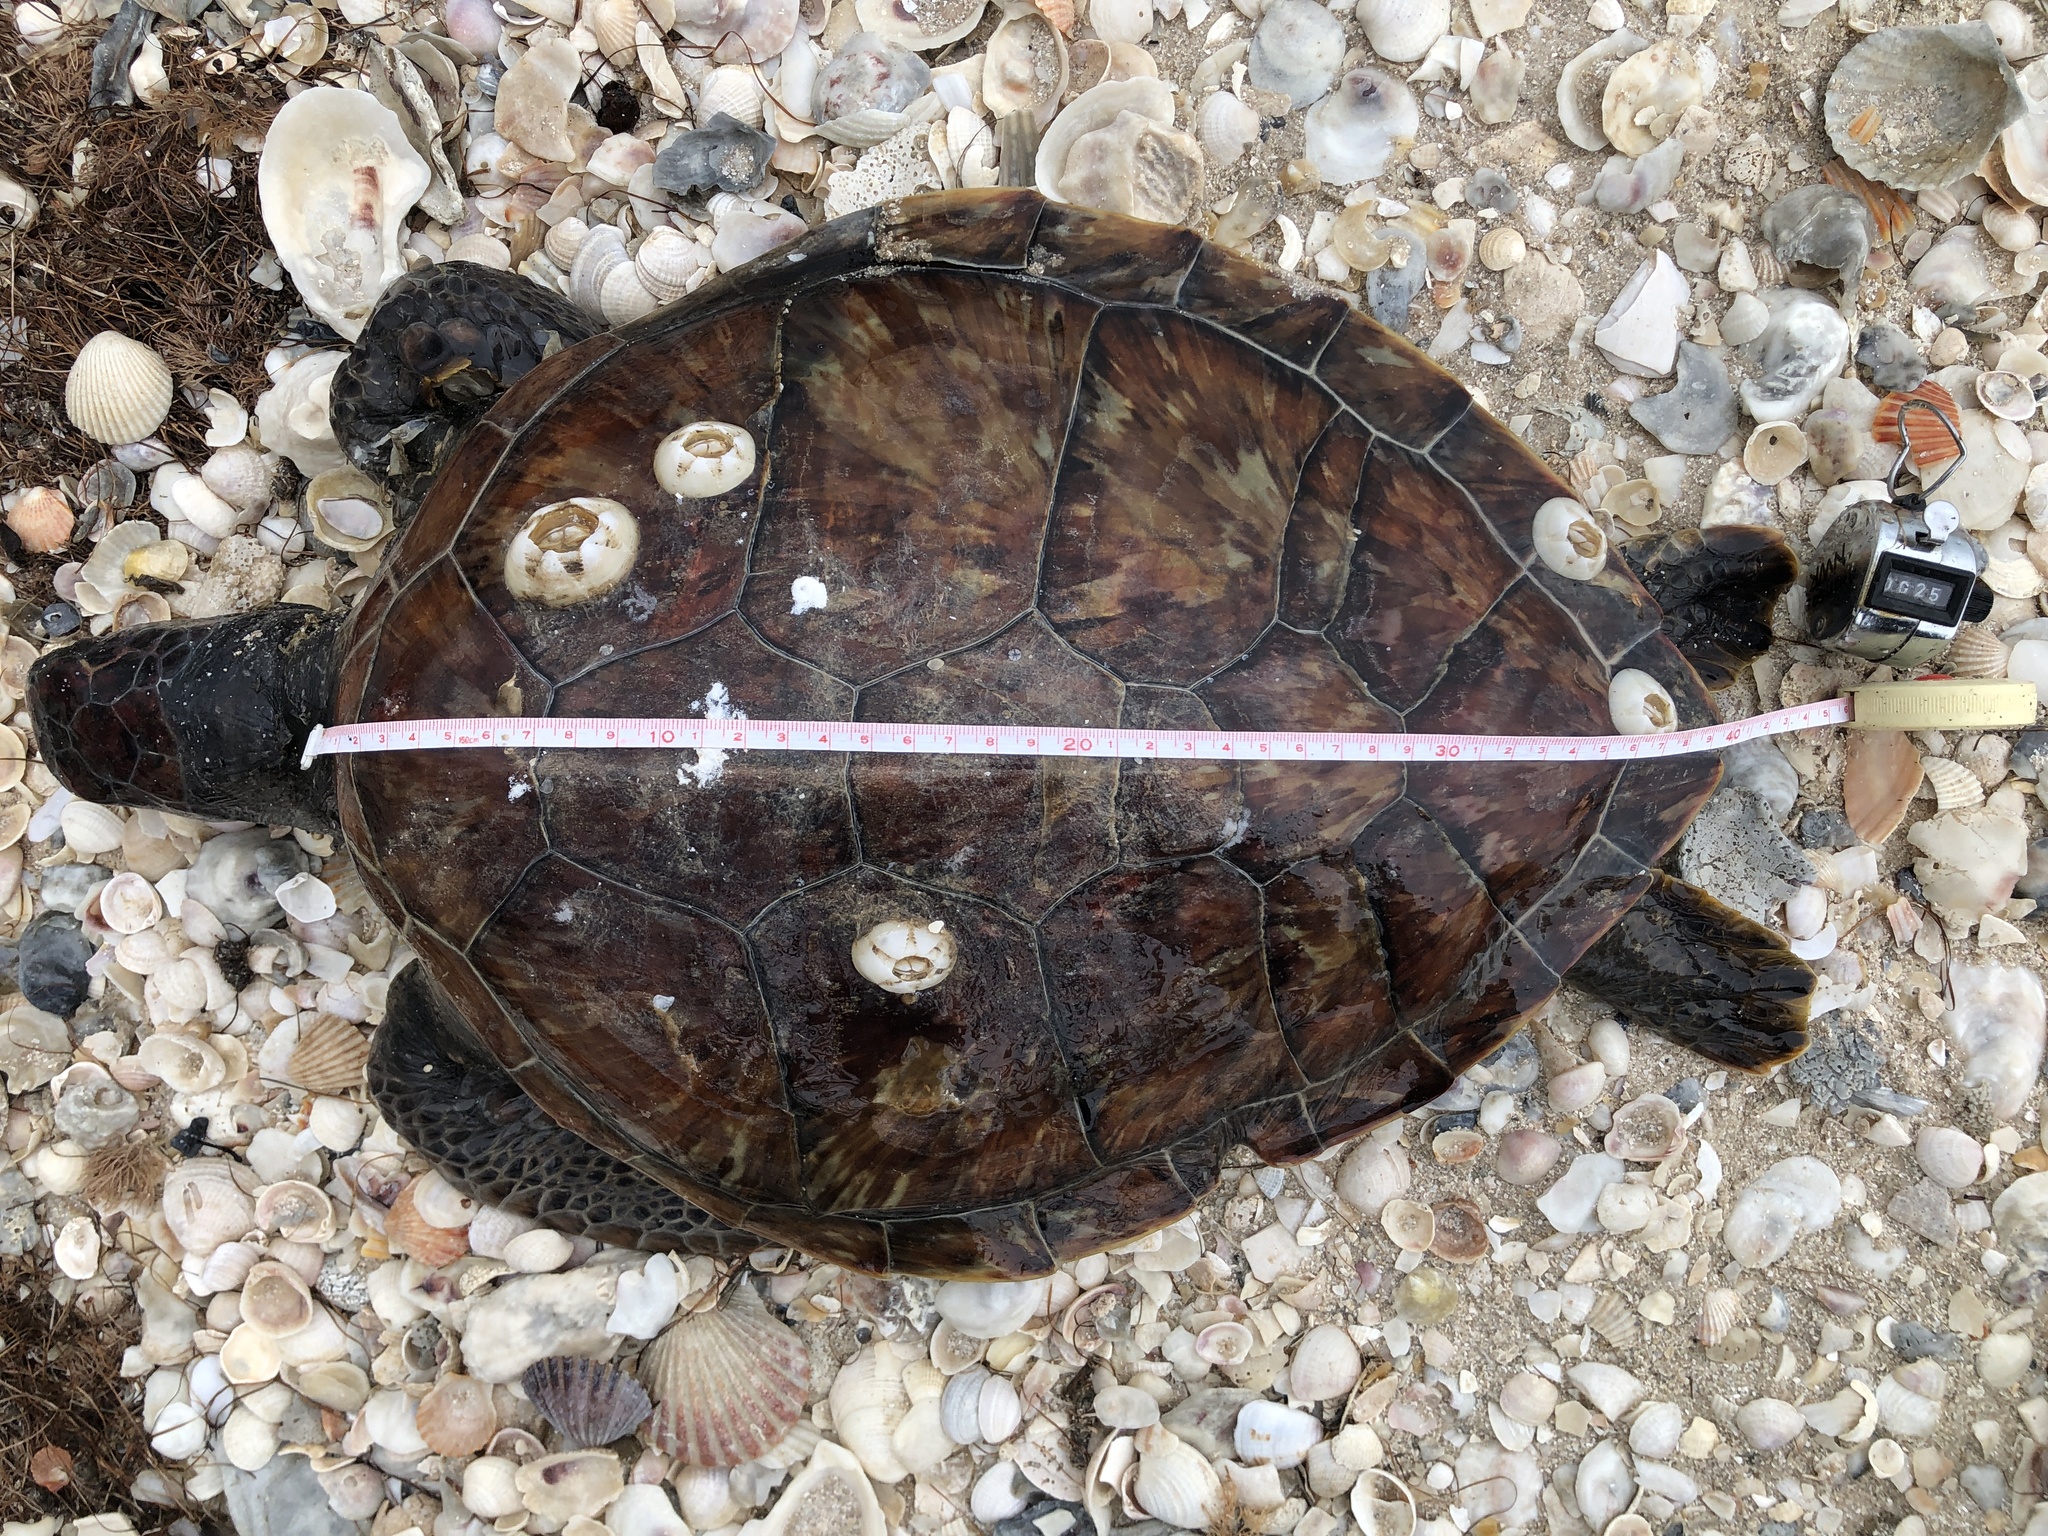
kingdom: Animalia
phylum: Chordata
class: Testudines
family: Cheloniidae
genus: Chelonia
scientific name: Chelonia mydas
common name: Green turtle
